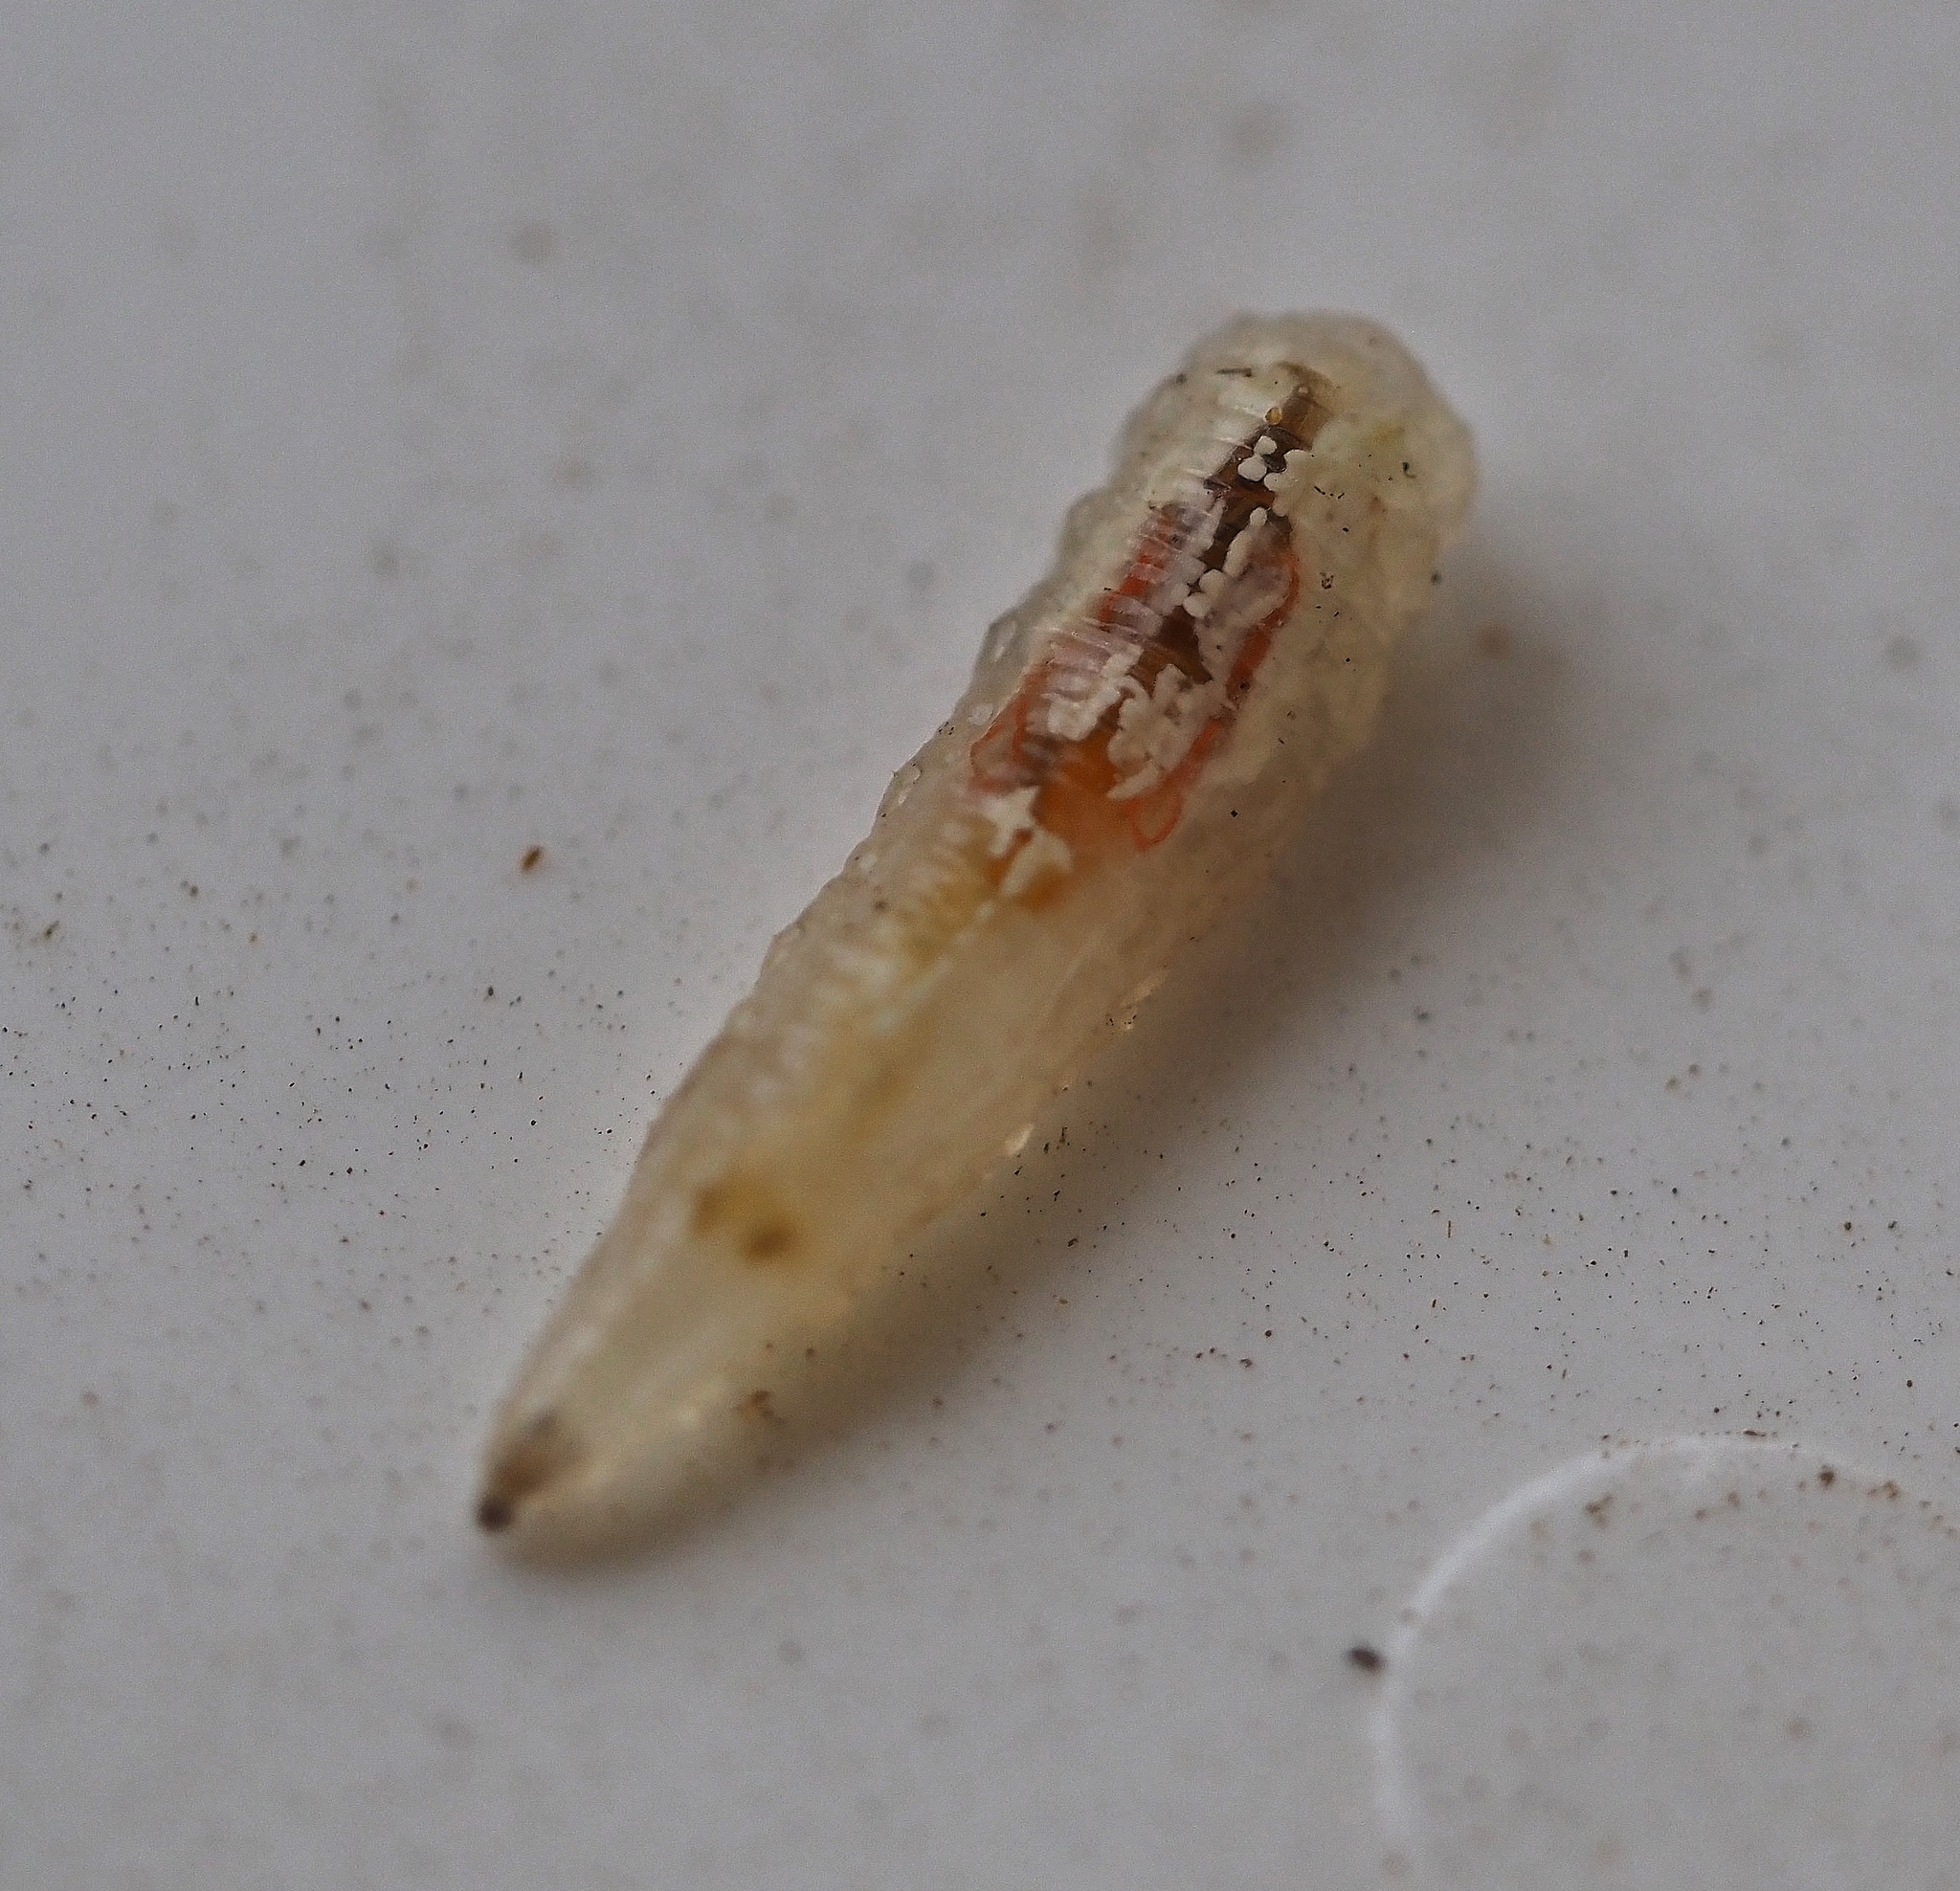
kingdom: Animalia
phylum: Arthropoda
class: Insecta
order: Diptera
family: Syrphidae
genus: Episyrphus
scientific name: Episyrphus balteatus
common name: Marmalade hoverfly
